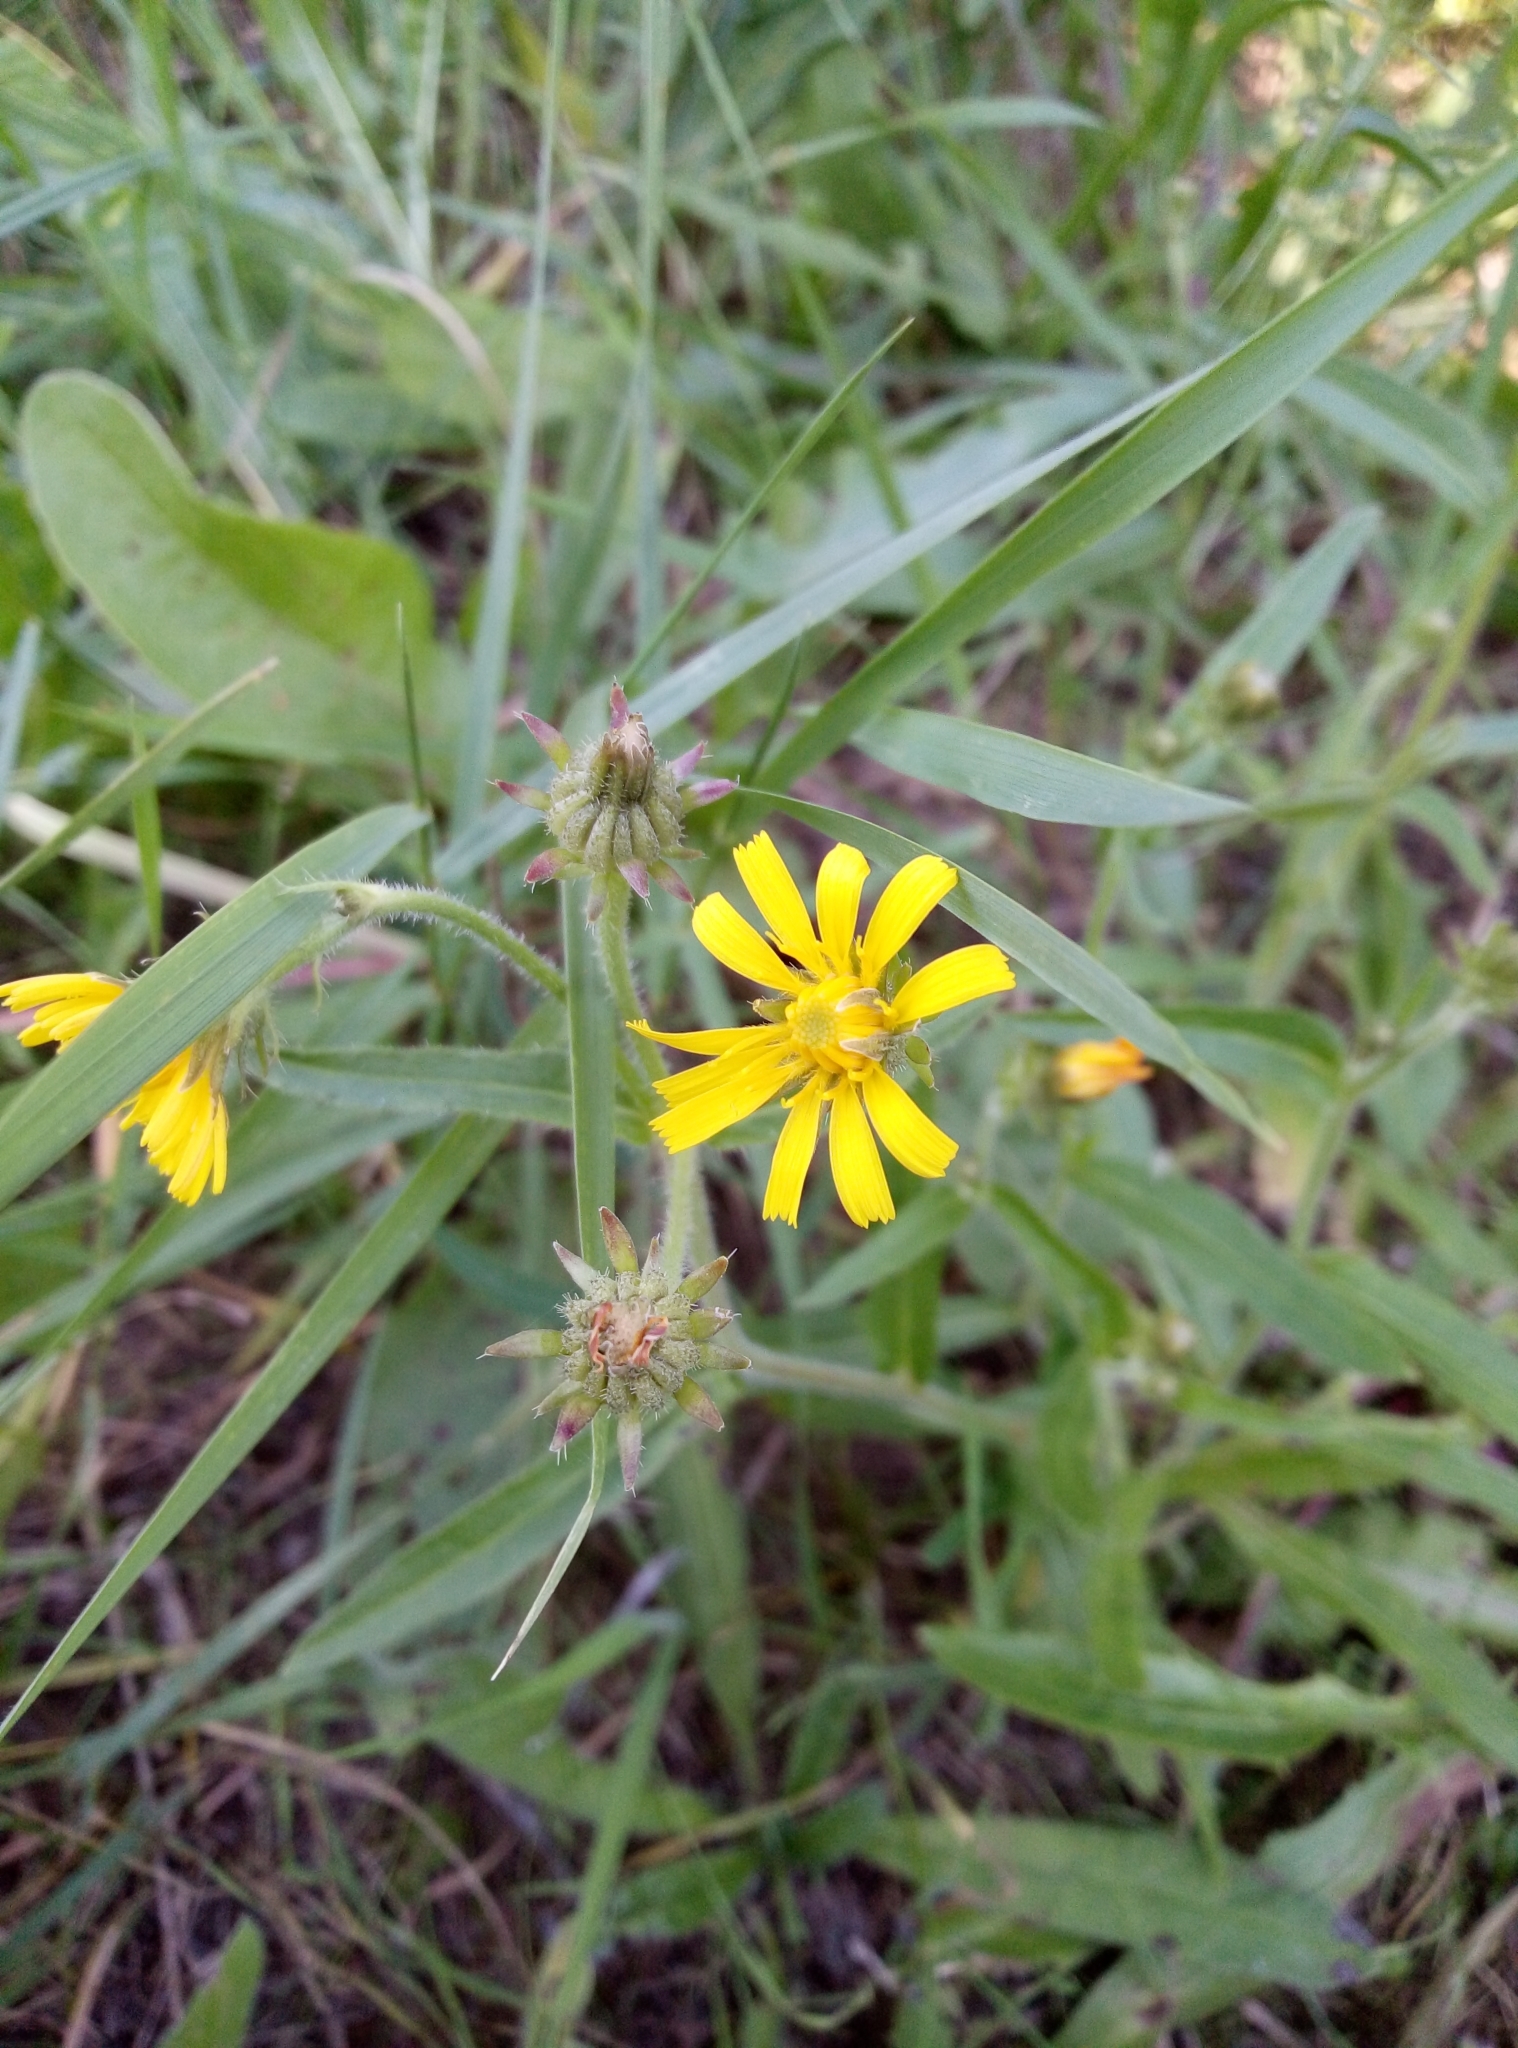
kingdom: Plantae
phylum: Tracheophyta
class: Magnoliopsida
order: Asterales
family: Asteraceae
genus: Picris
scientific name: Picris hieracioides
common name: Hawkweed oxtongue
